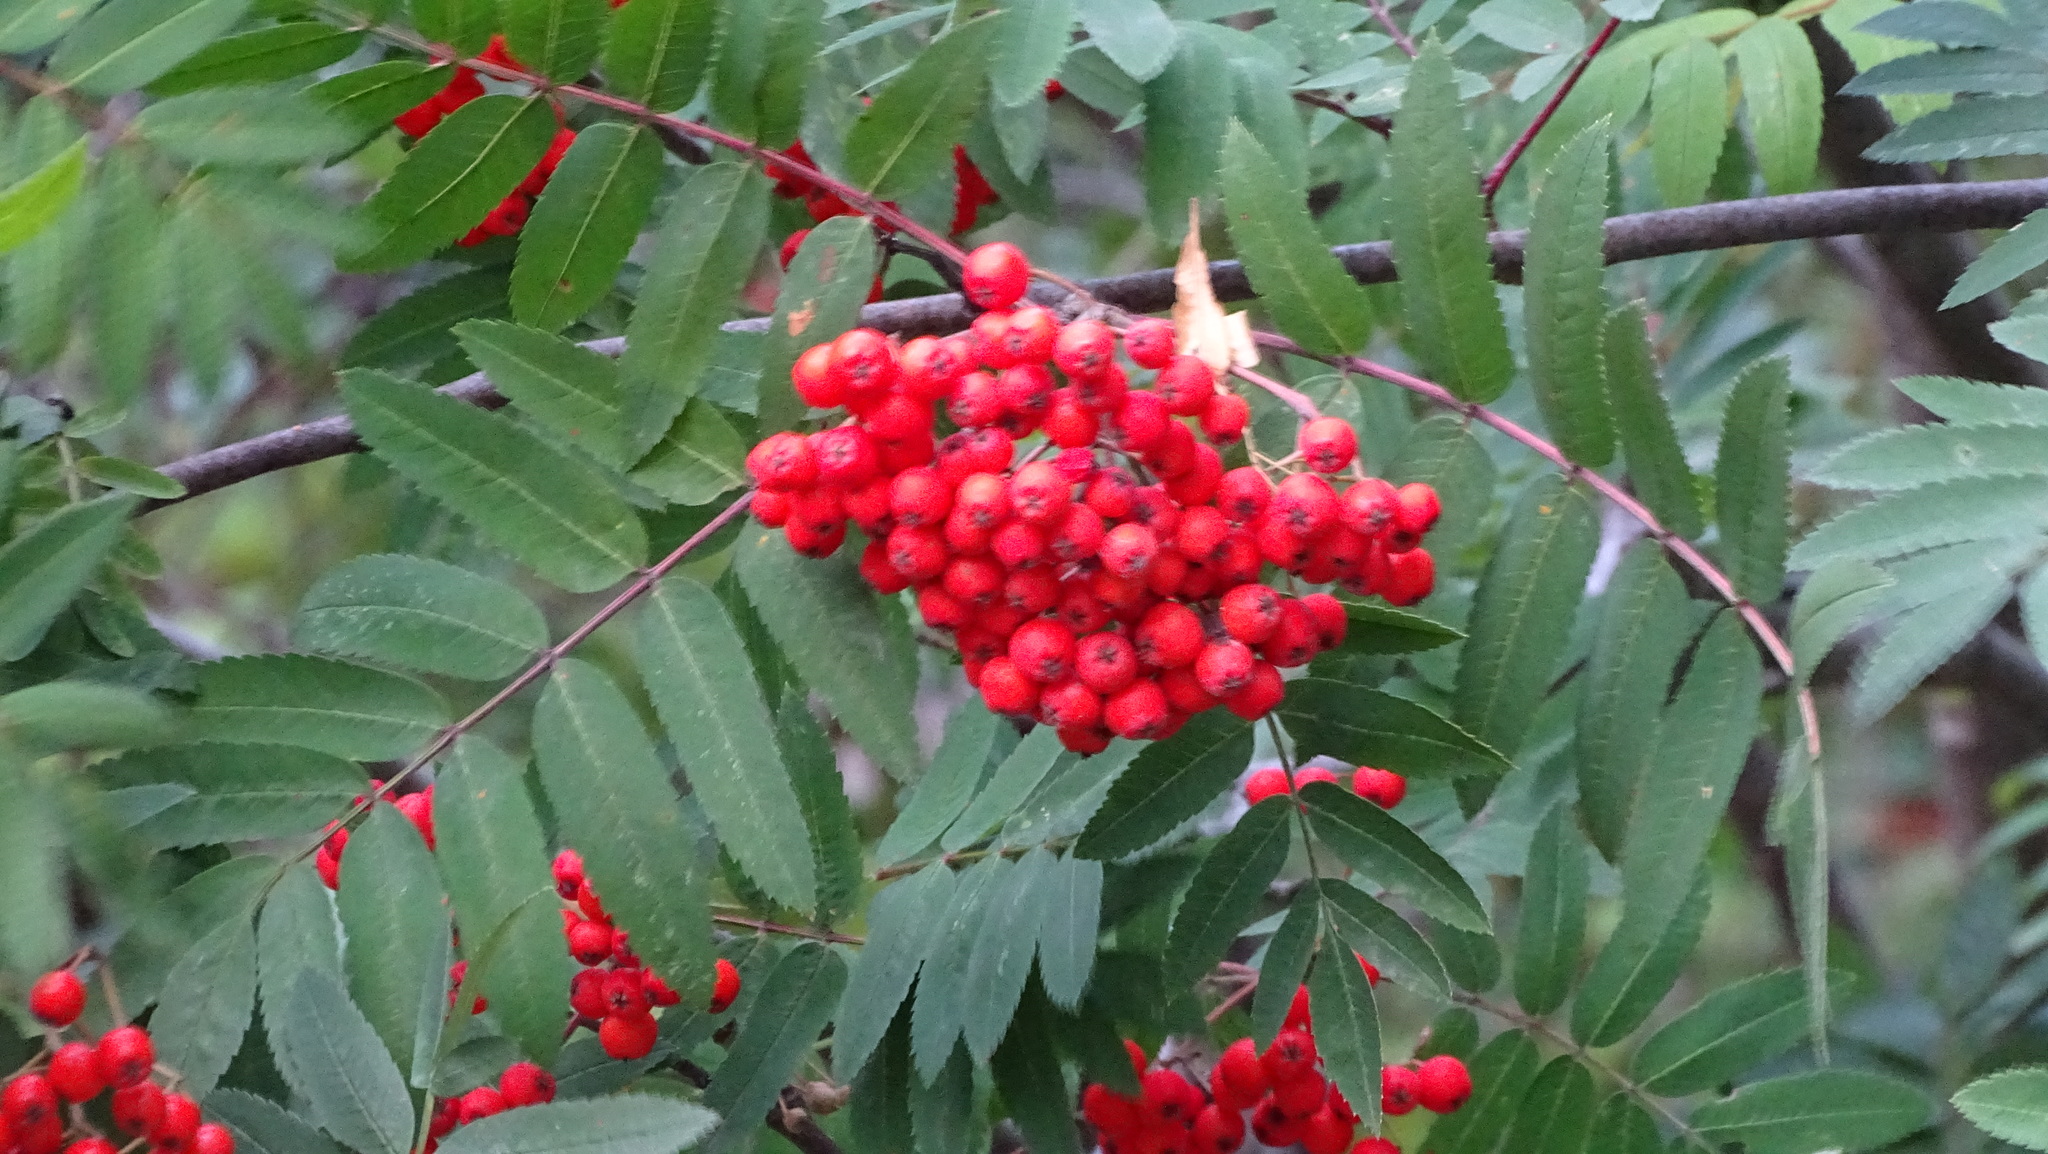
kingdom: Plantae
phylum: Tracheophyta
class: Magnoliopsida
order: Rosales
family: Rosaceae
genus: Sorbus
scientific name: Sorbus aucuparia
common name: Rowan
